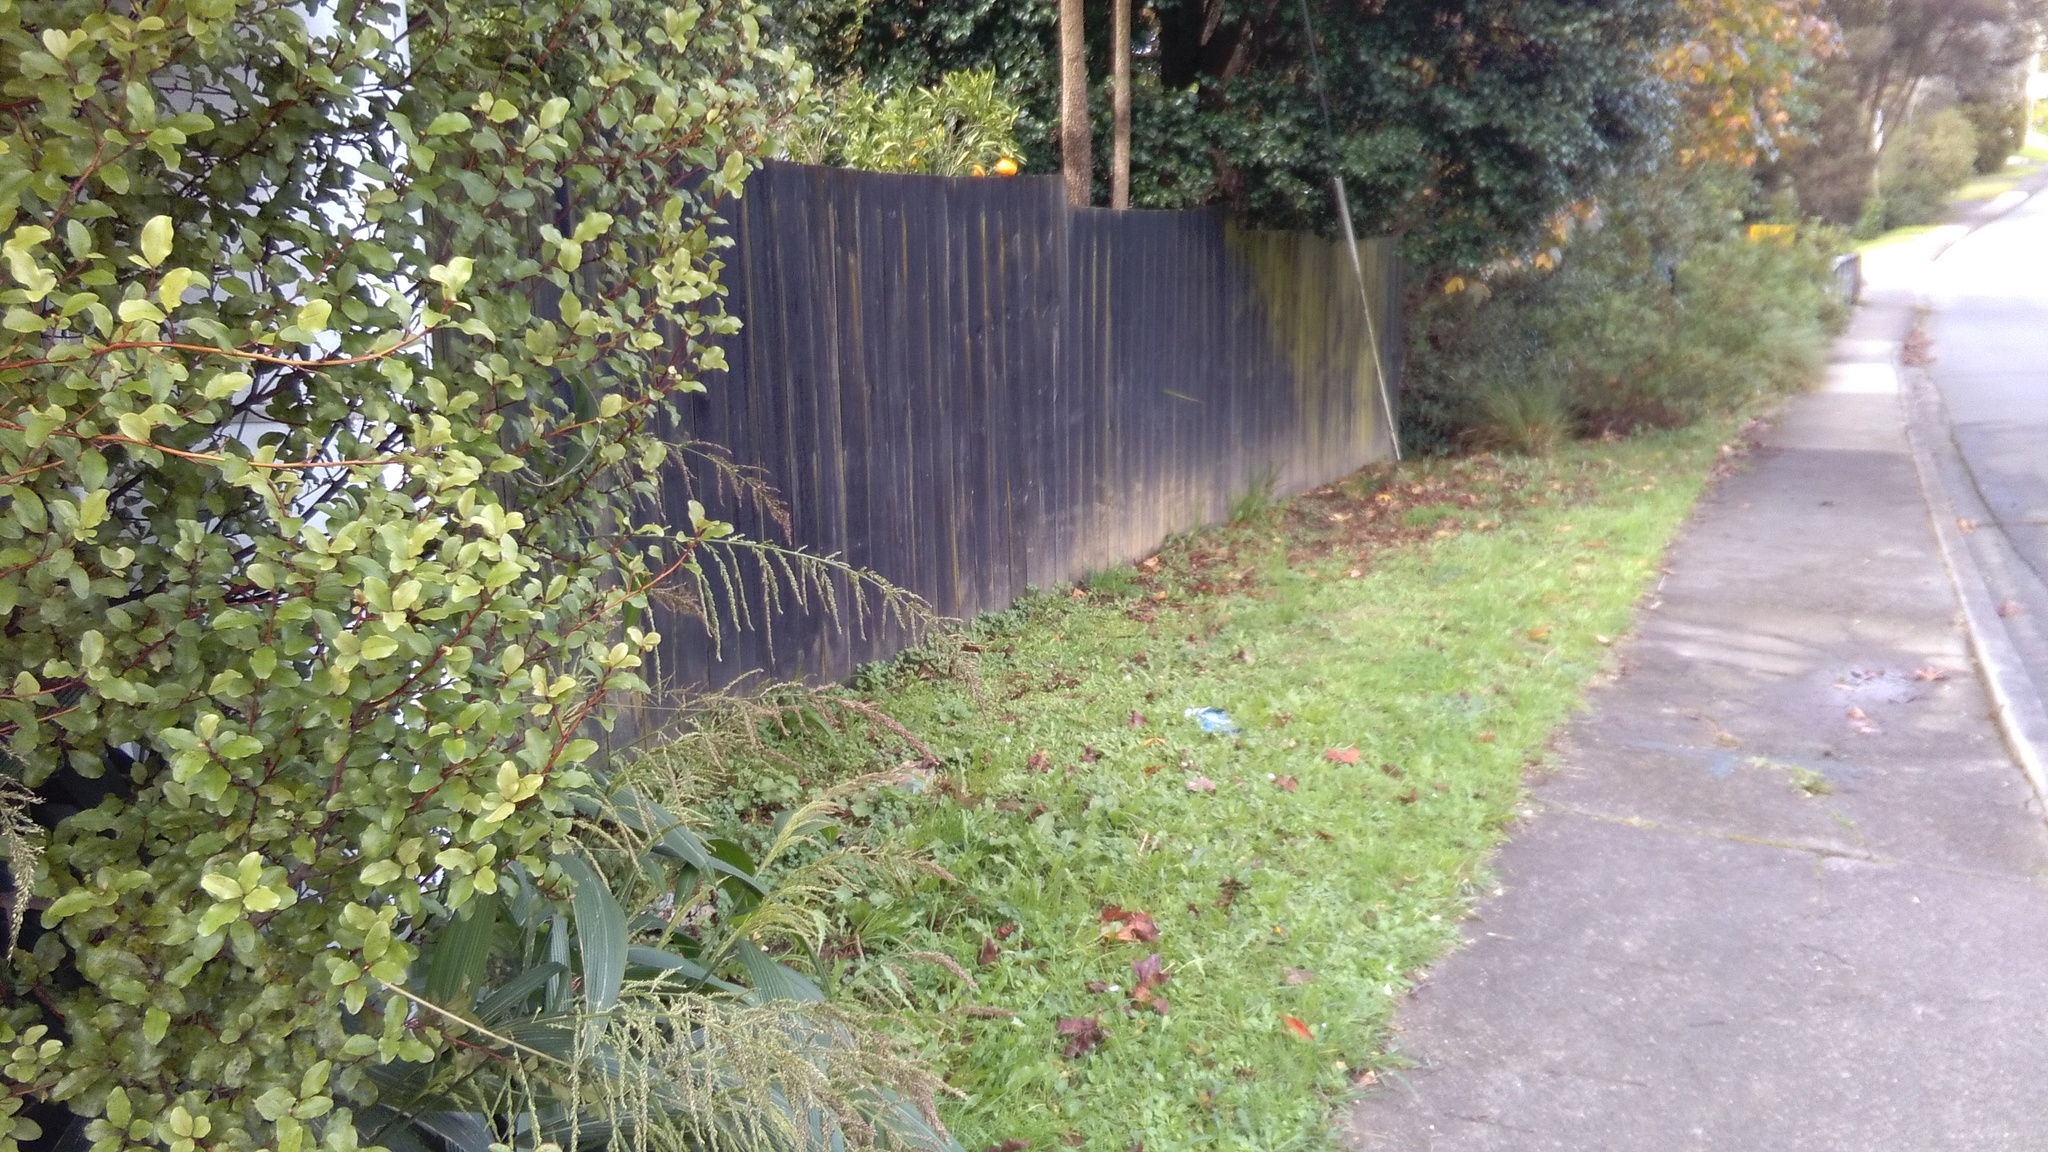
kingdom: Plantae
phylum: Tracheophyta
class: Liliopsida
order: Poales
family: Poaceae
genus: Setaria
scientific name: Setaria palmifolia
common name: Broadleaved bristlegrass
